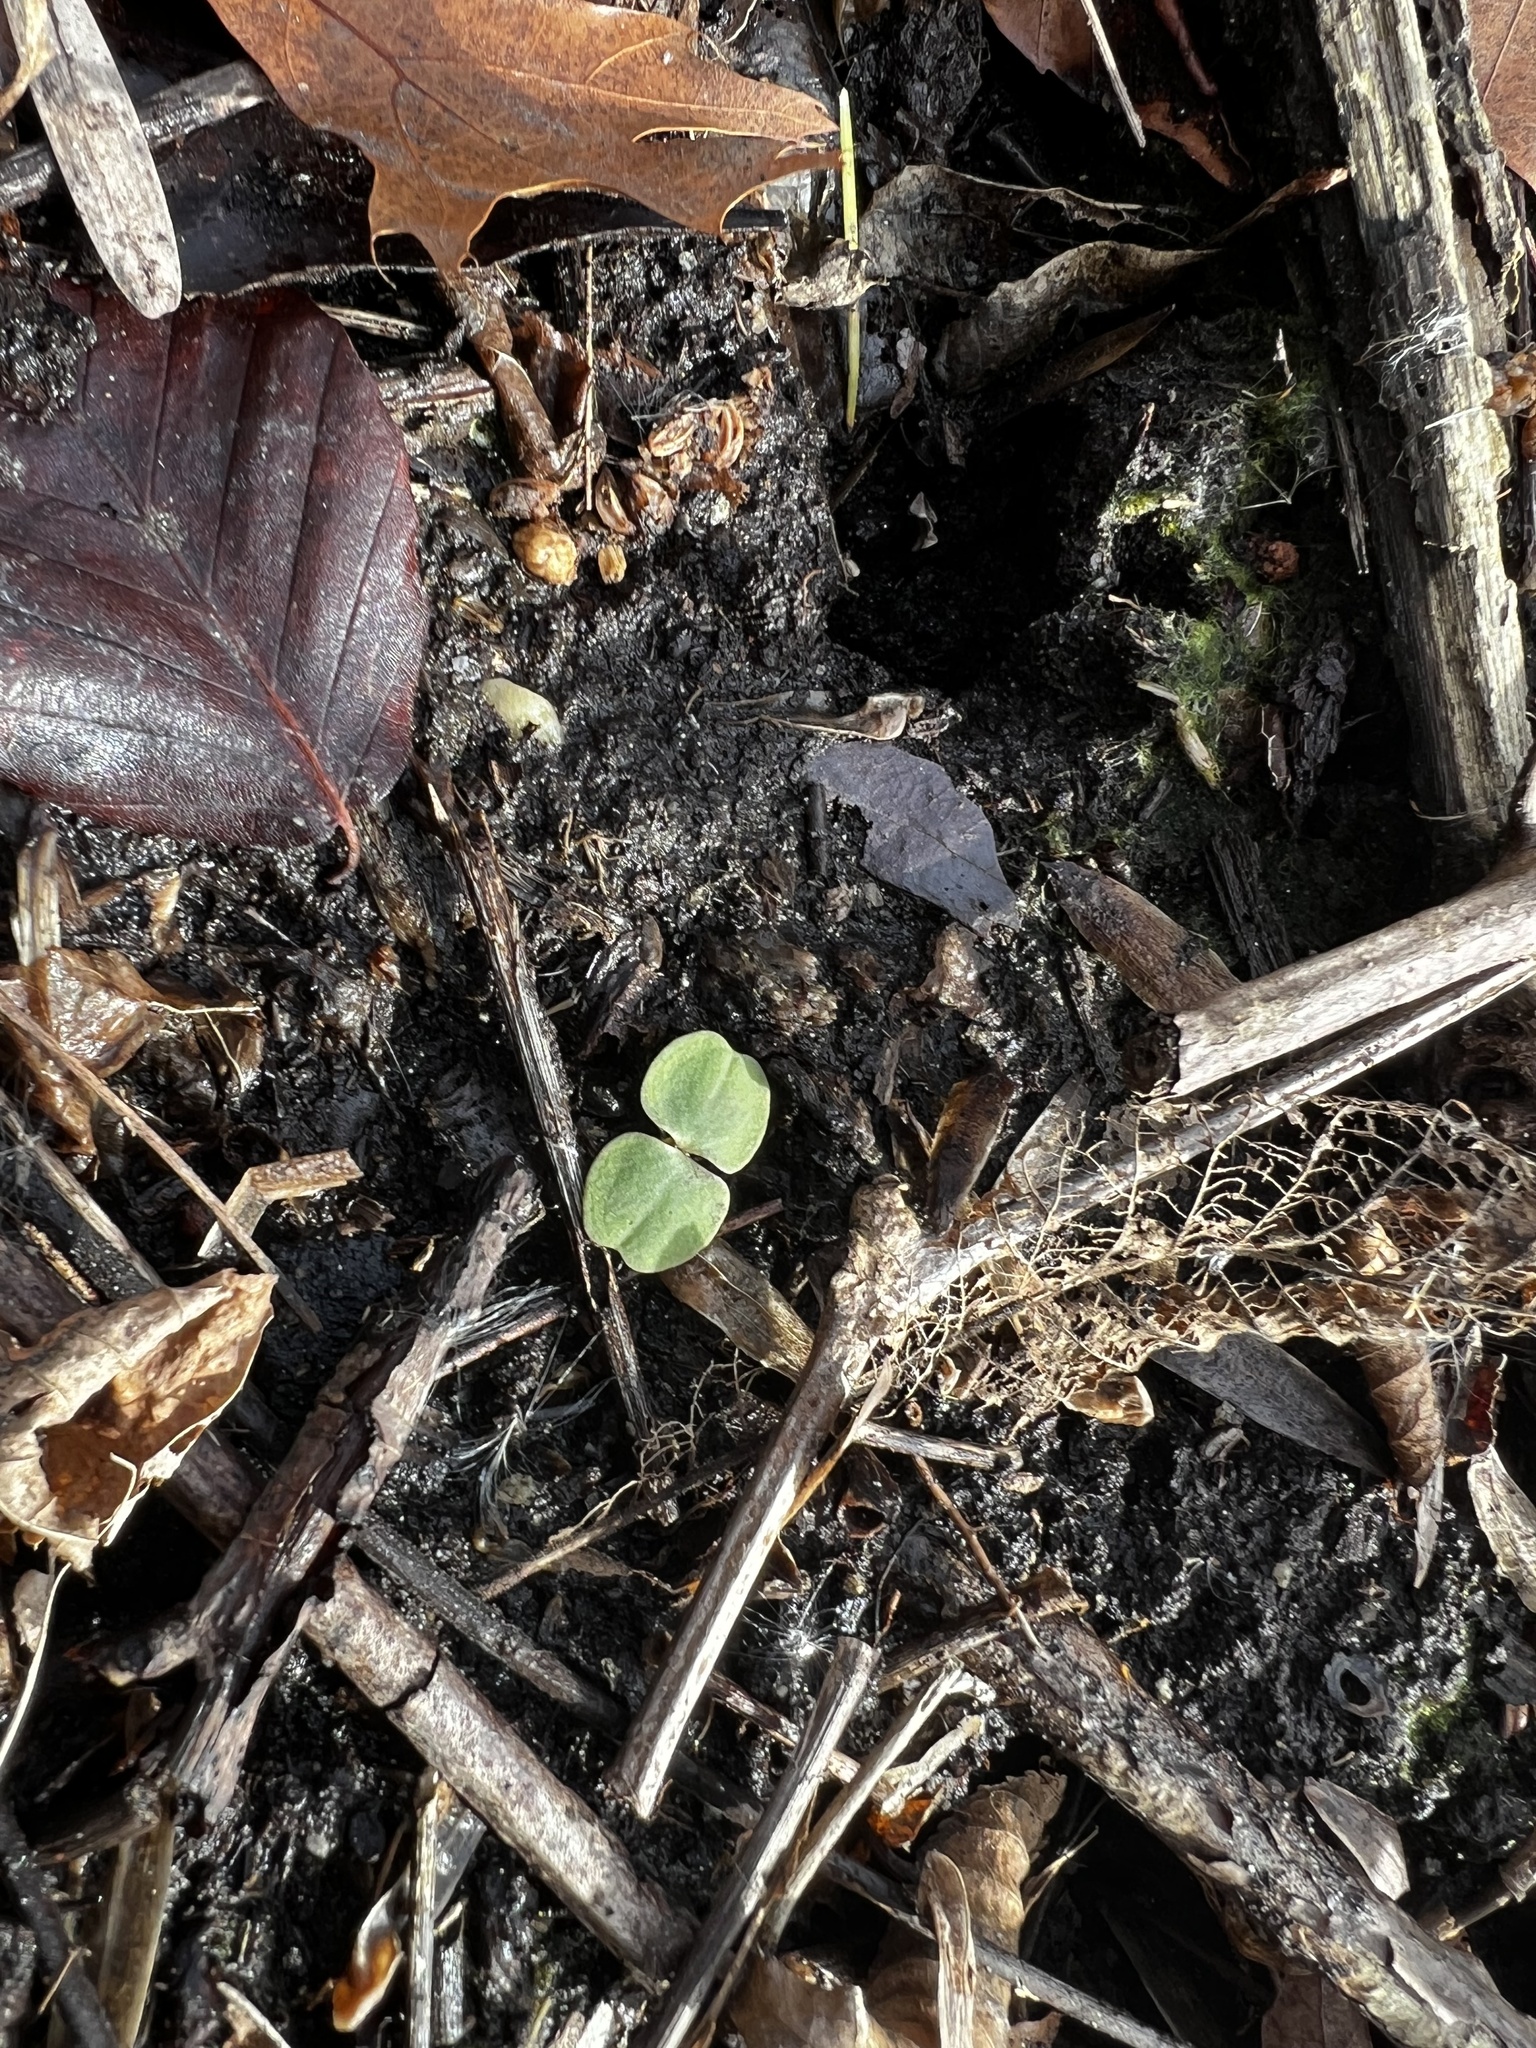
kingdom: Plantae
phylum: Tracheophyta
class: Magnoliopsida
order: Ericales
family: Balsaminaceae
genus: Impatiens
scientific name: Impatiens
